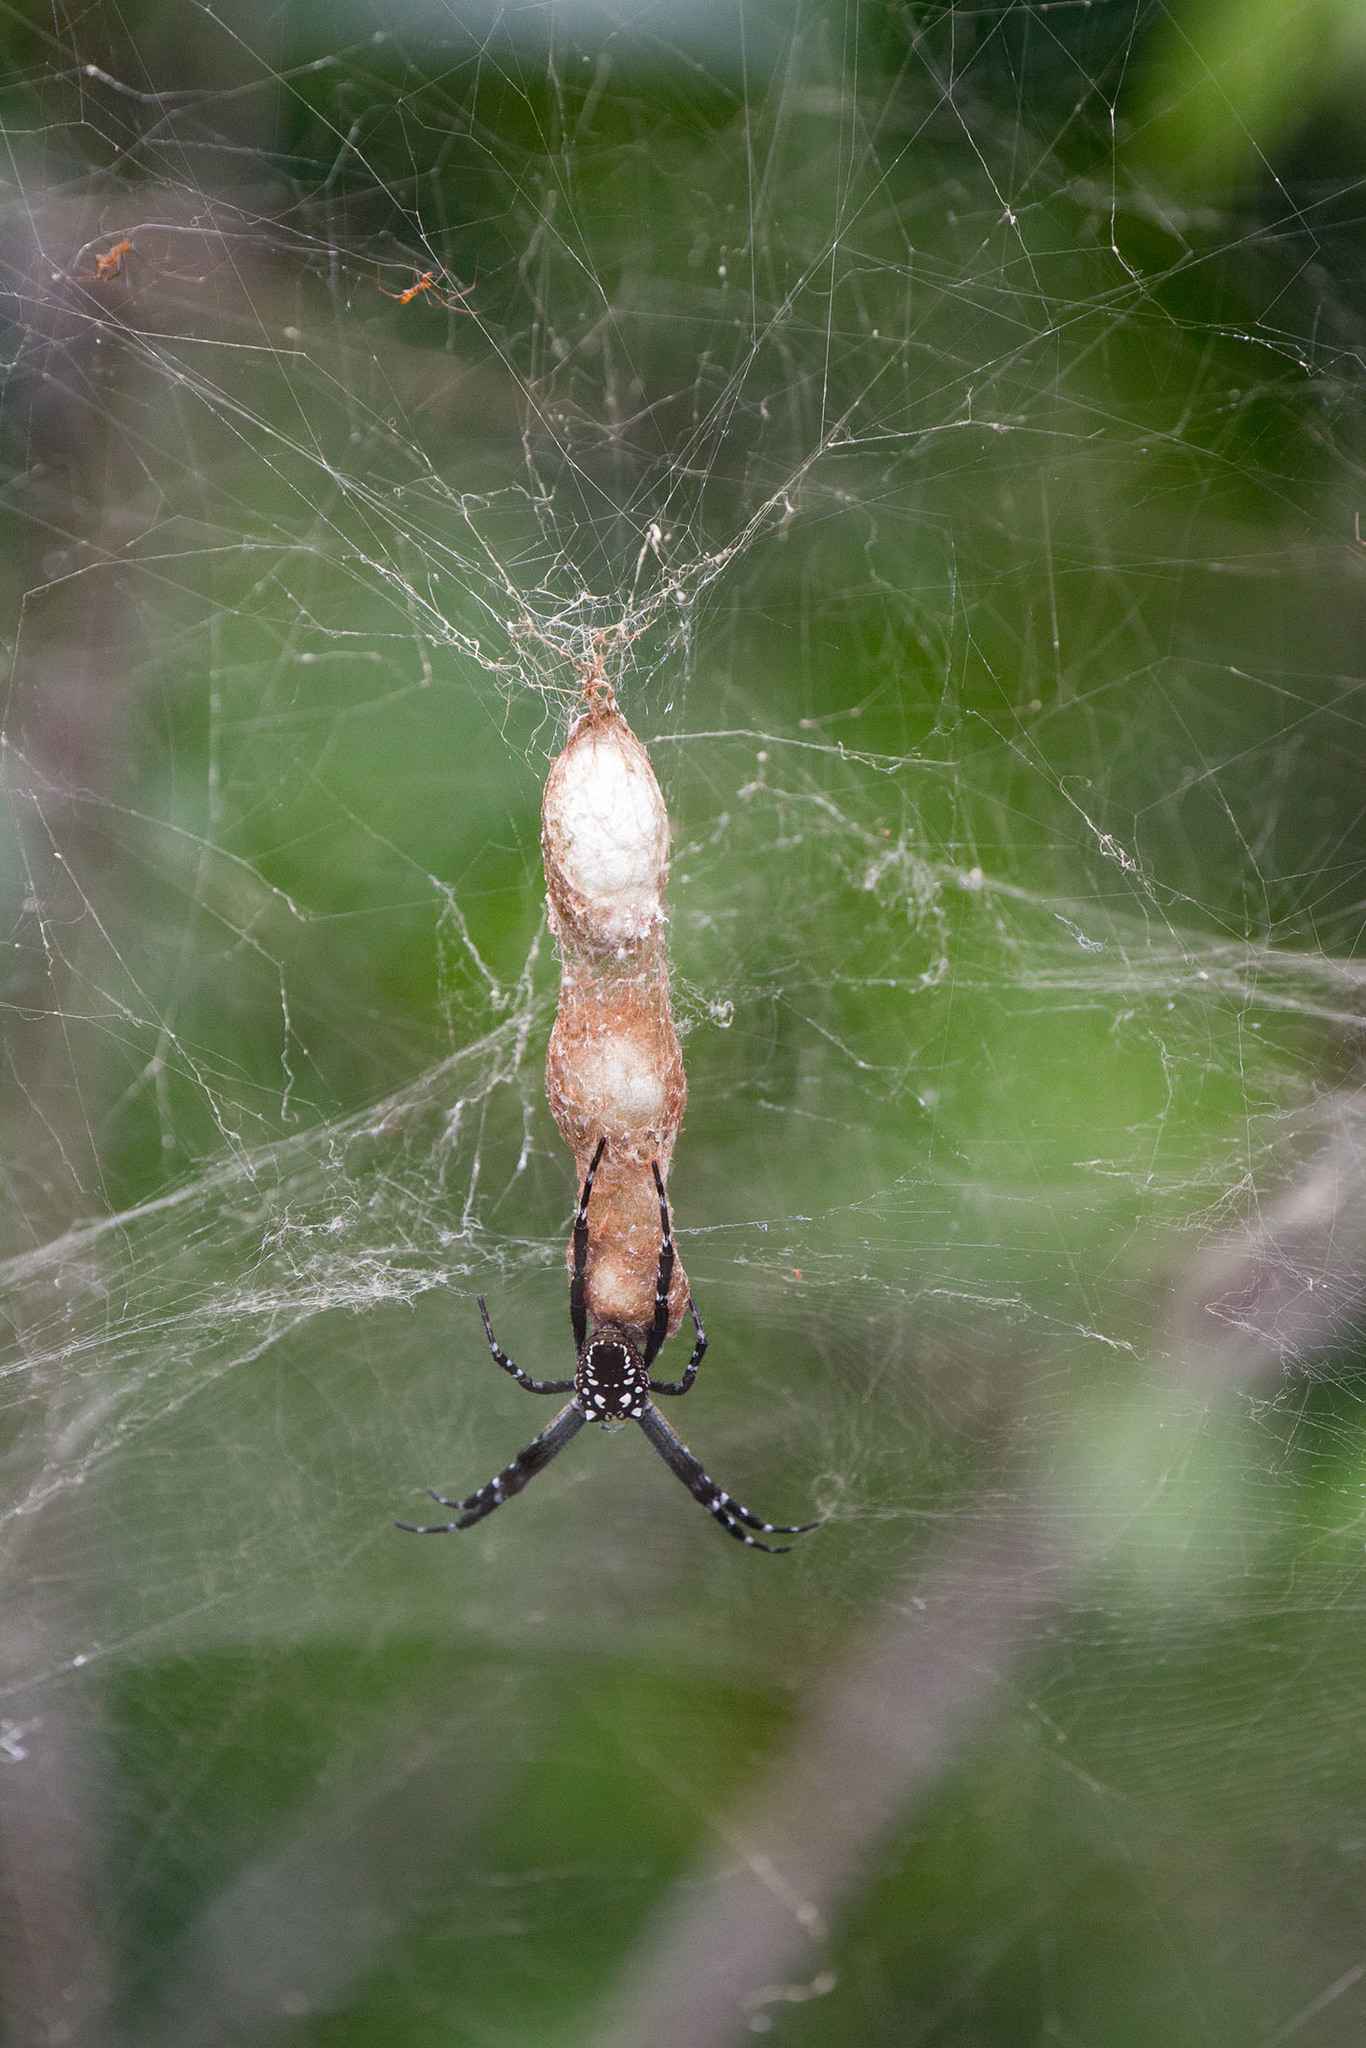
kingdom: Chromista
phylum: Ochrophyta
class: Dictyochophyceae
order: Pedinellales
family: Cyrtophoraceae
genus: Cyrtophora
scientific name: Cyrtophora moluccensis
